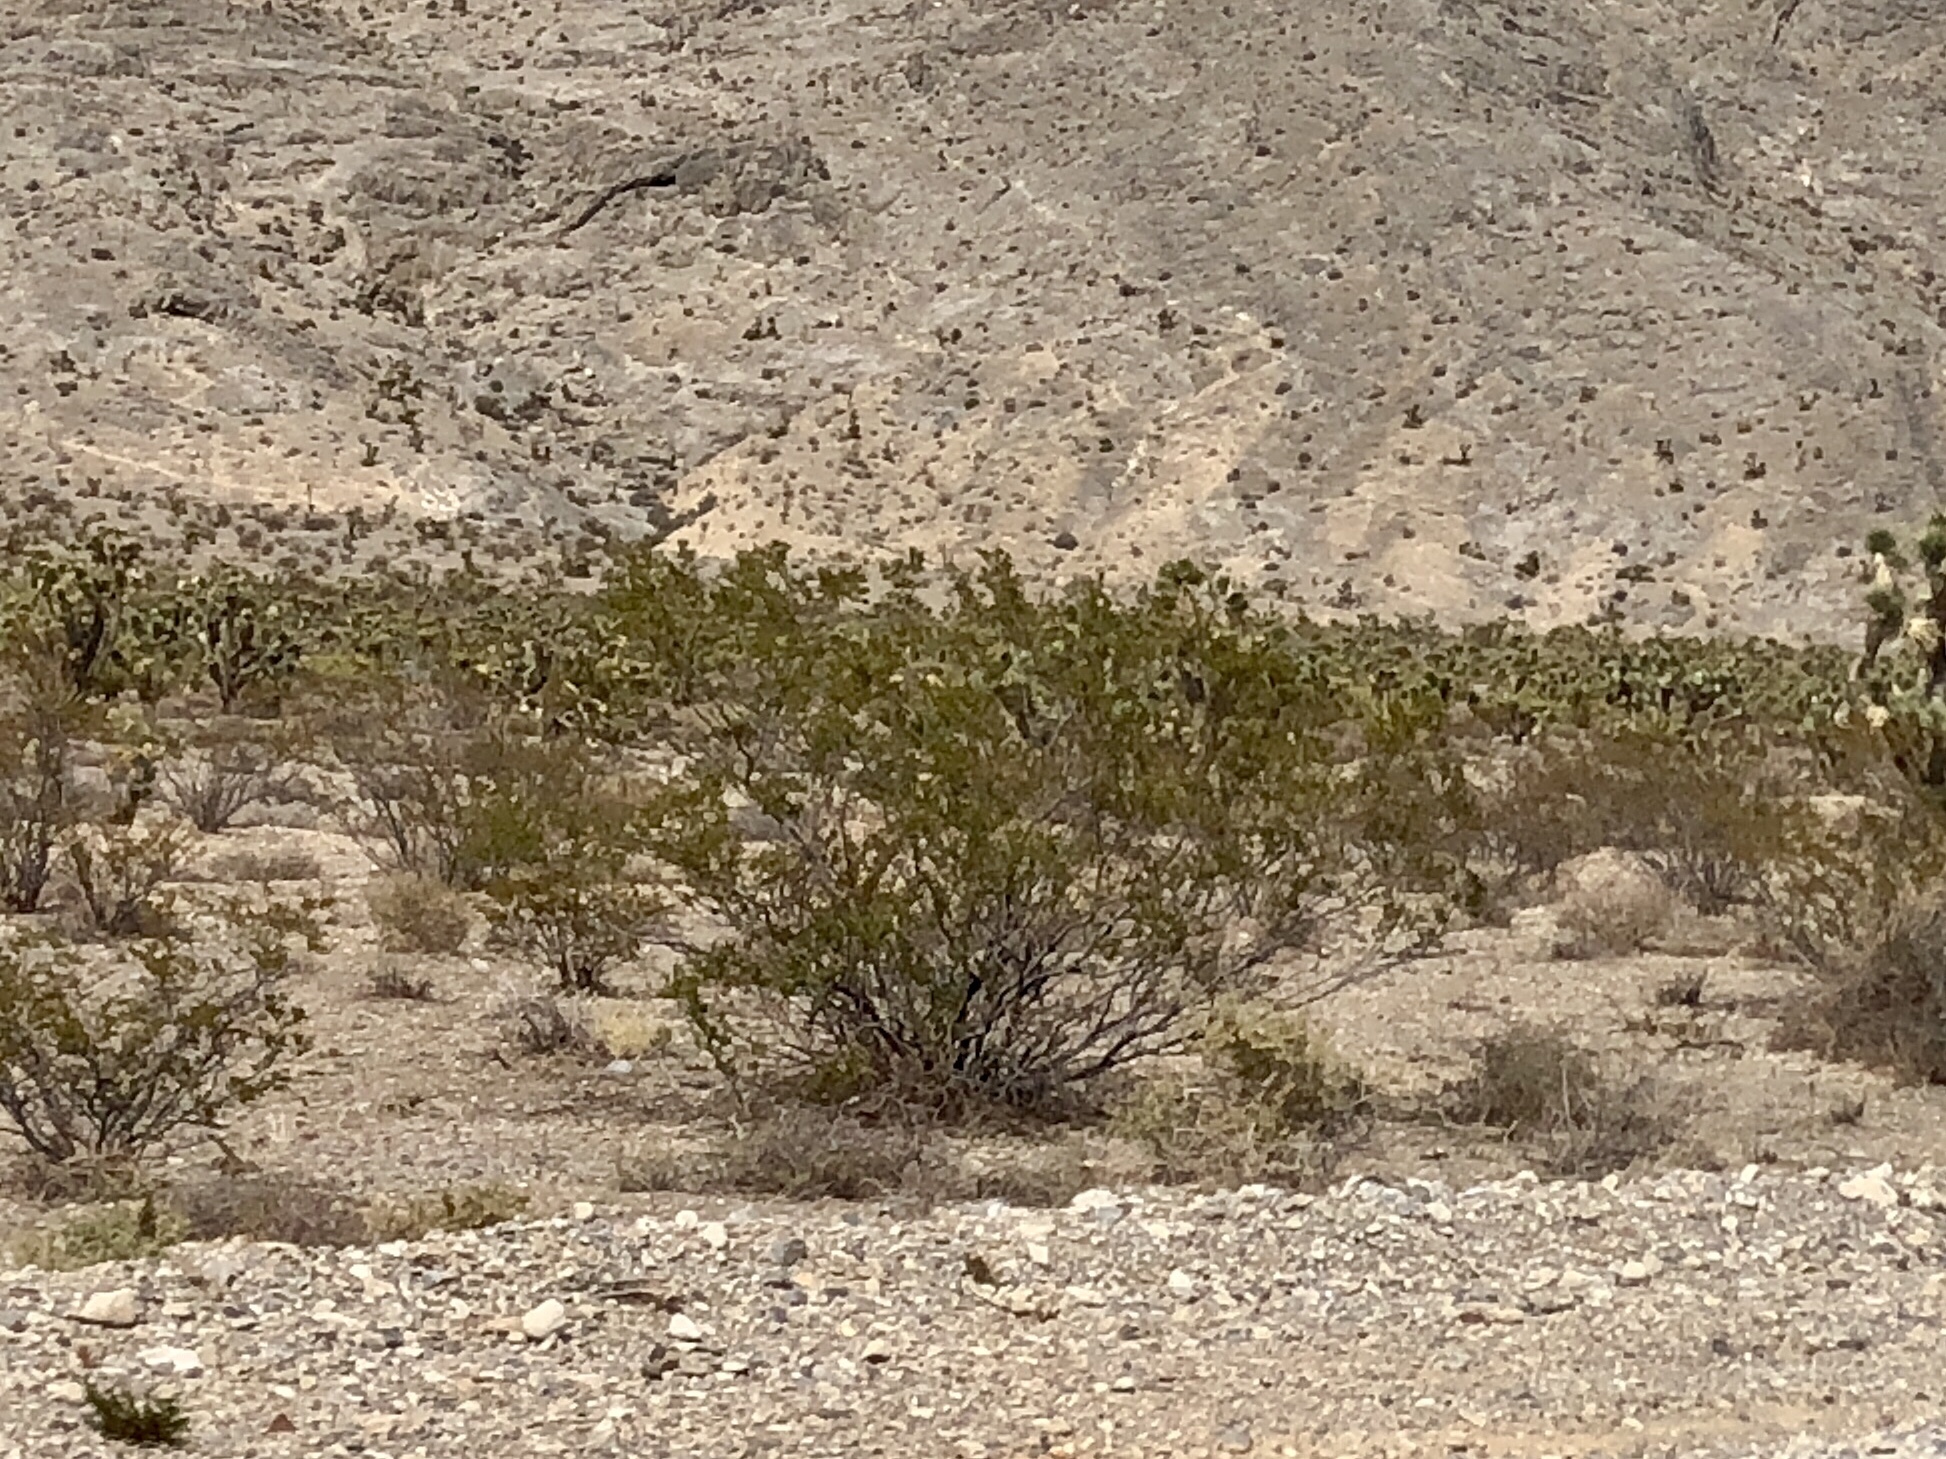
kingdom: Plantae
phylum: Tracheophyta
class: Magnoliopsida
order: Zygophyllales
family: Zygophyllaceae
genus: Larrea
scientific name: Larrea tridentata
